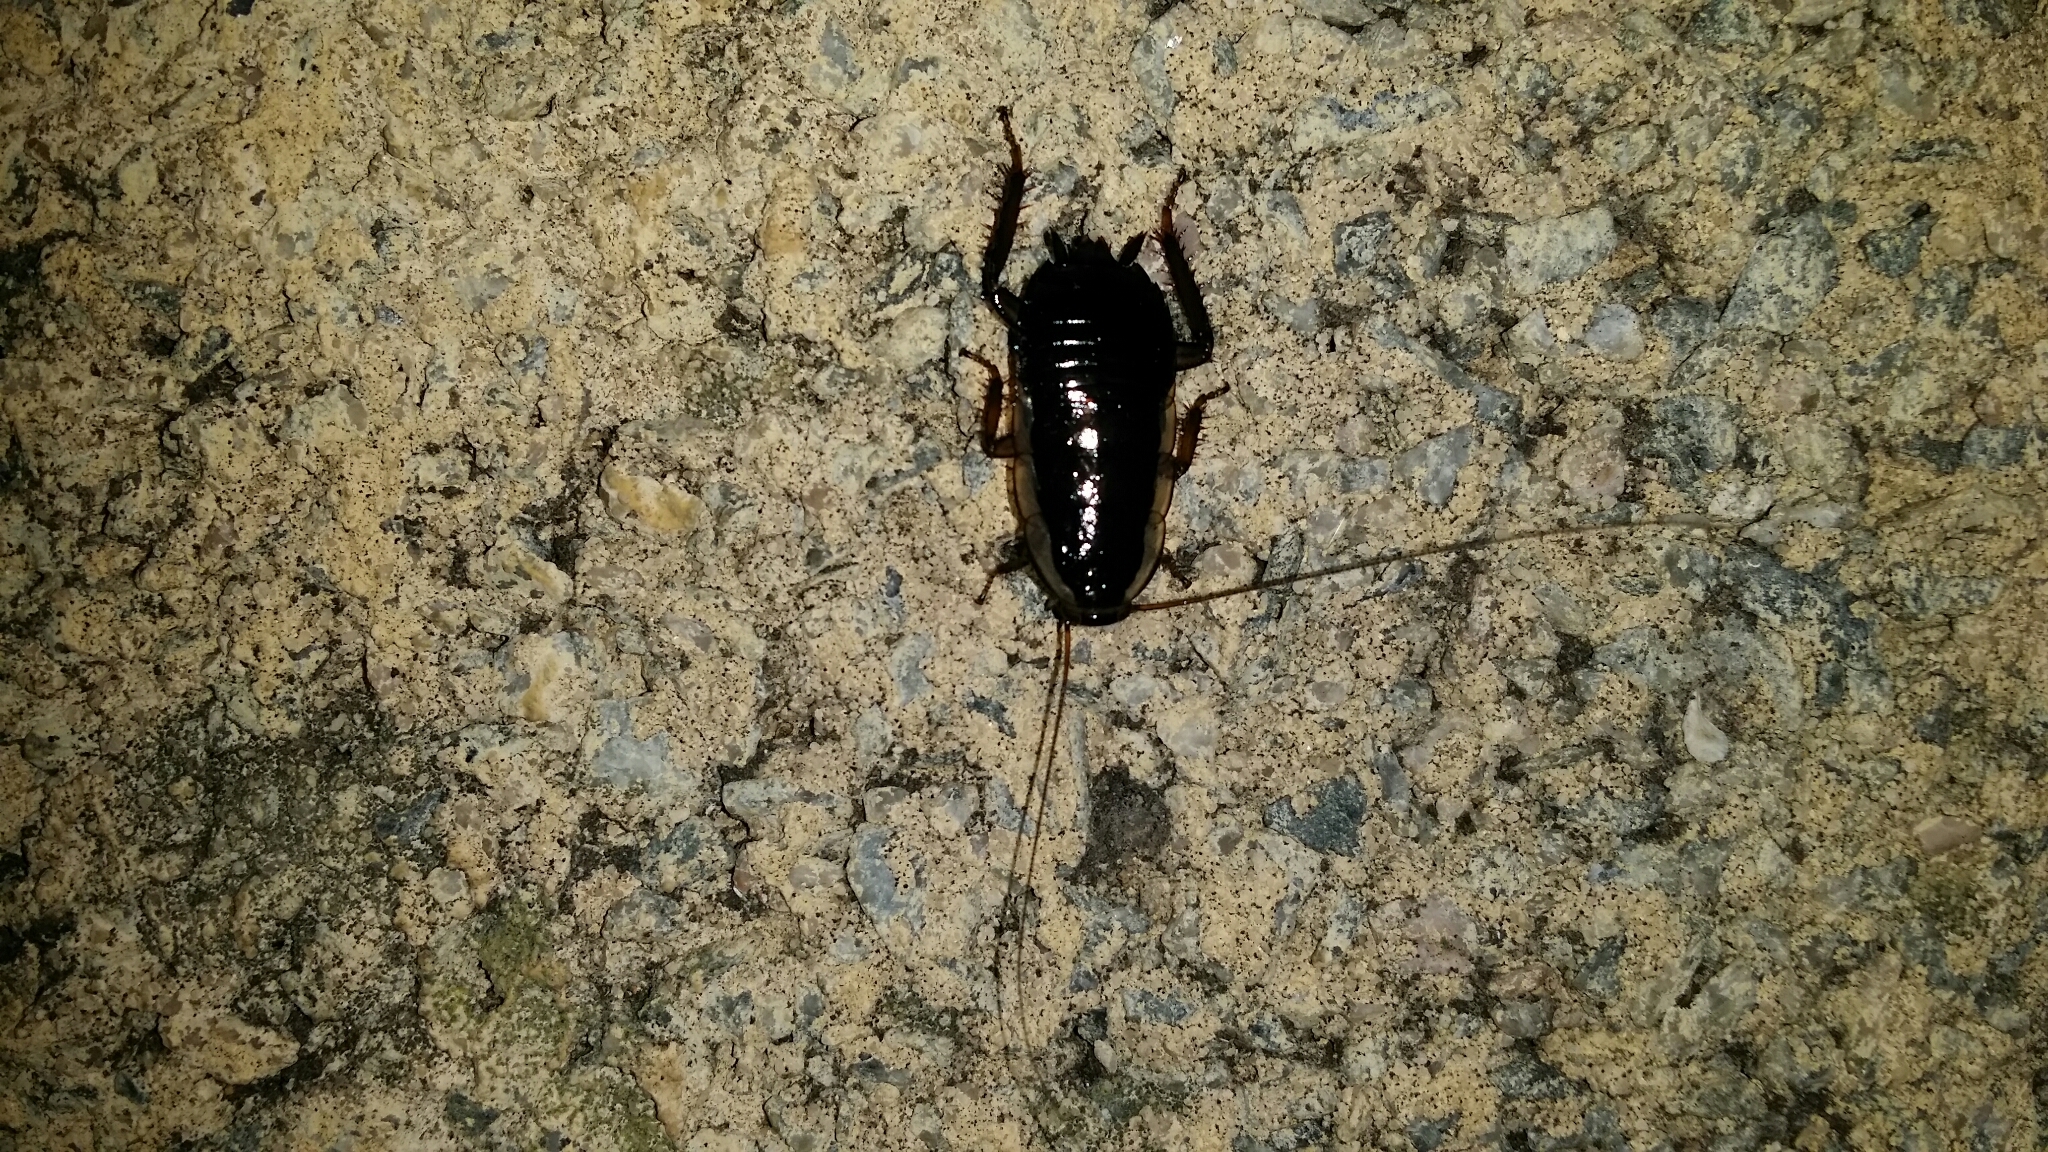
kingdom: Animalia
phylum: Arthropoda
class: Insecta
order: Blattodea
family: Blattidae
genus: Drymaplaneta
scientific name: Drymaplaneta semivitta
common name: Gisborne cockroach
